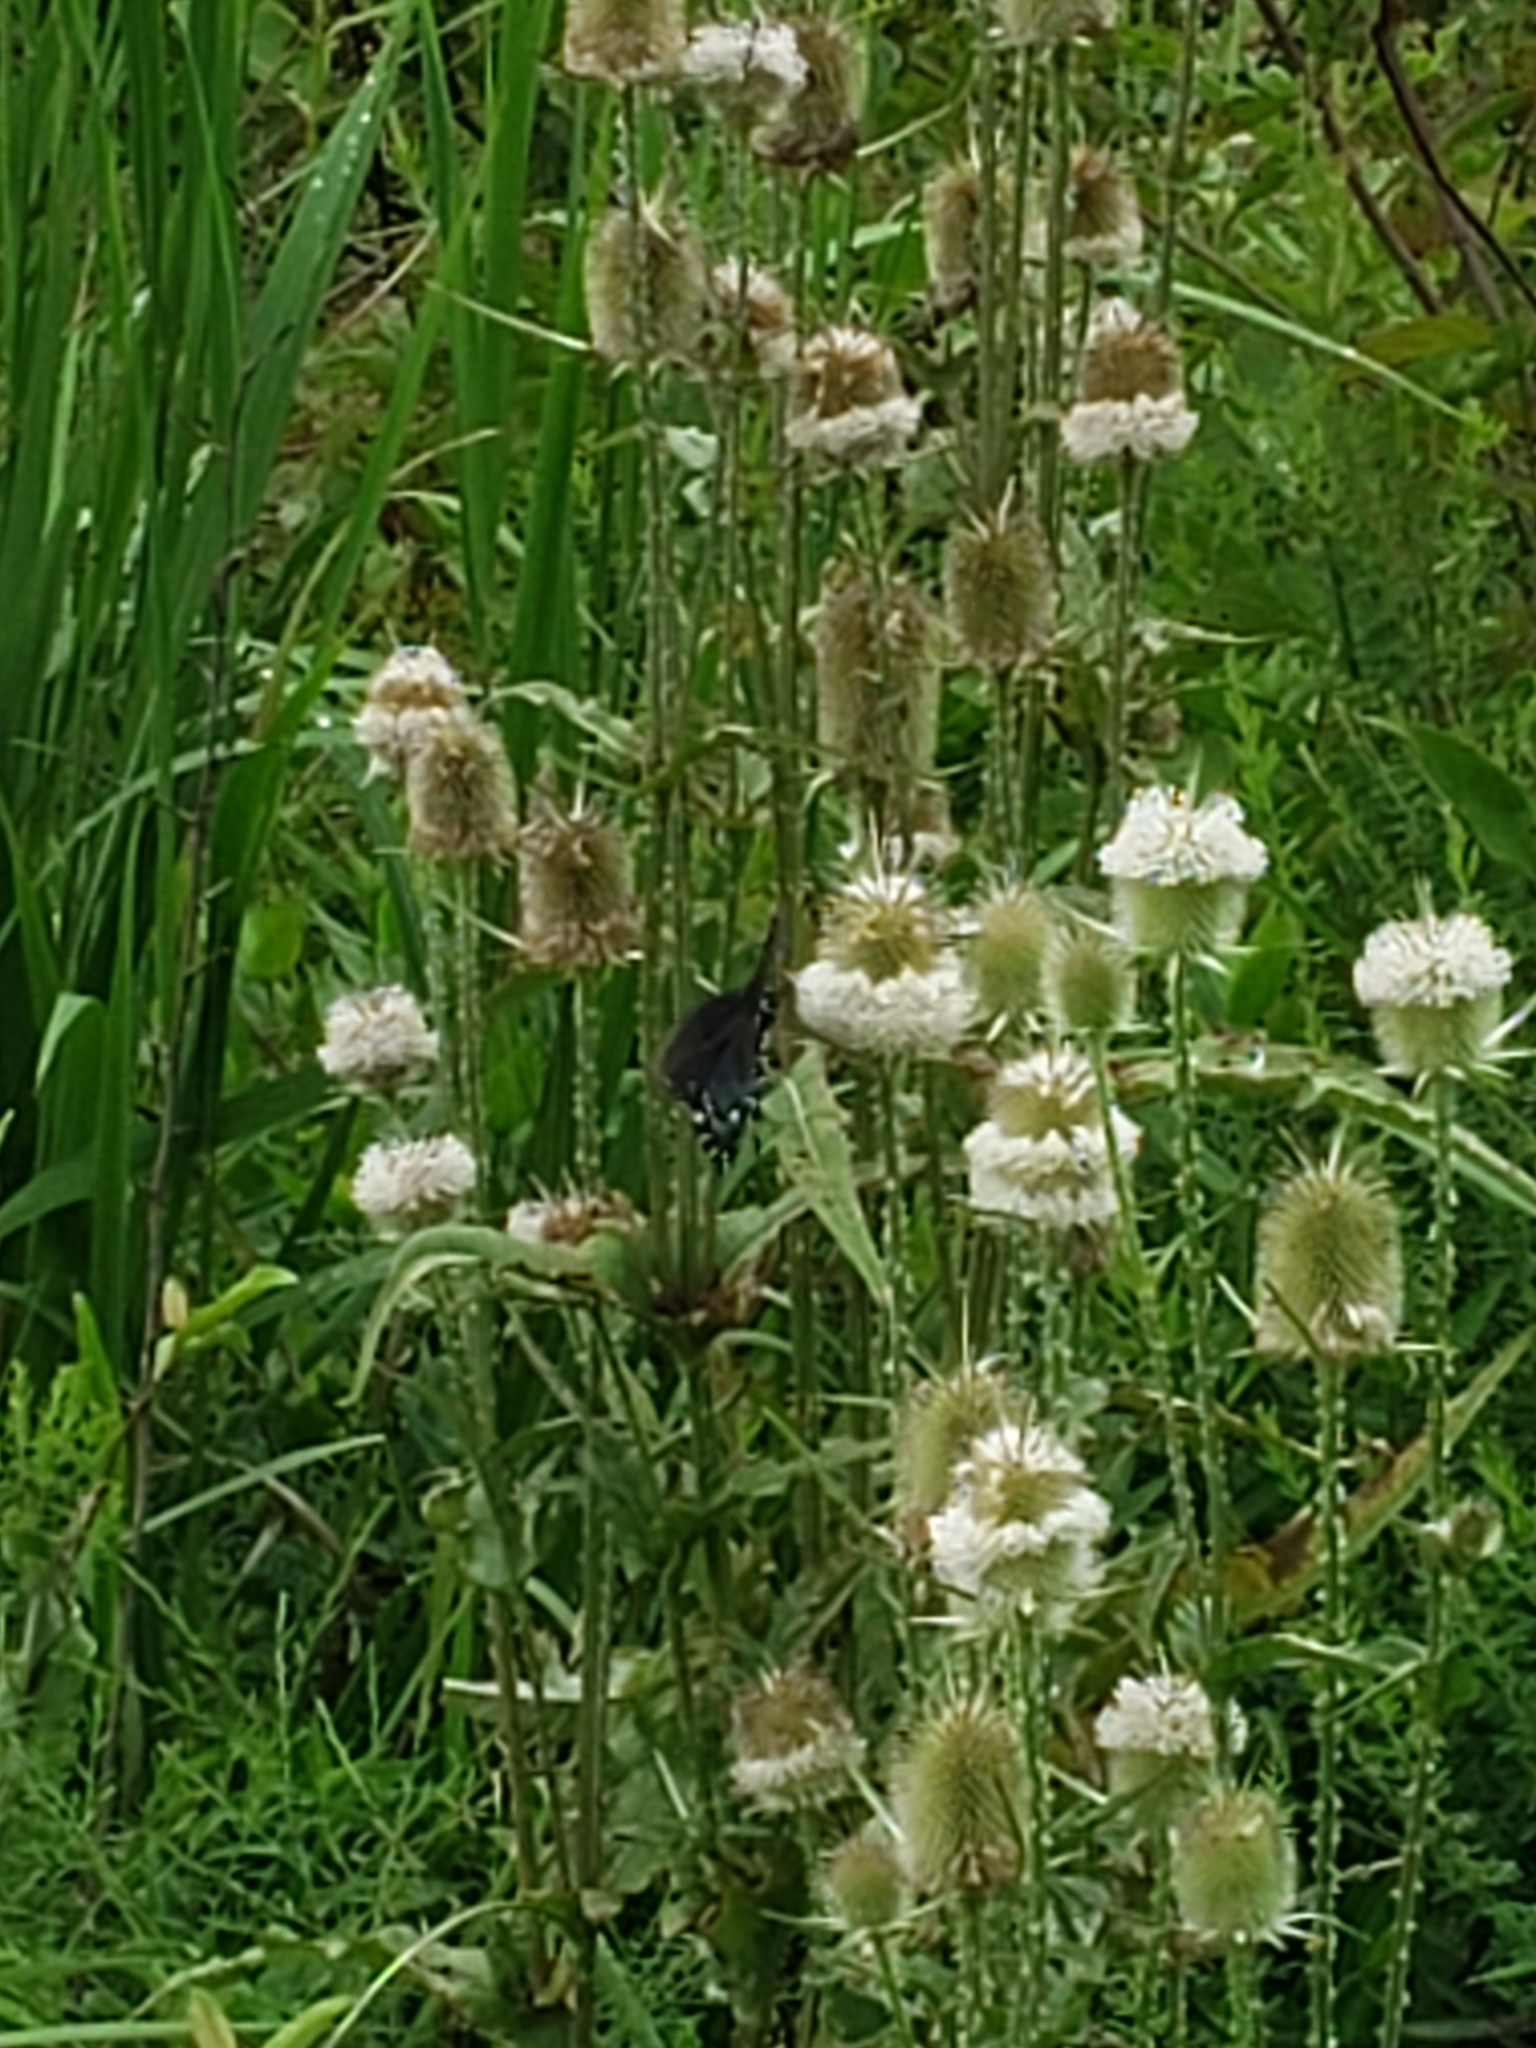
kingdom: Plantae
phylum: Tracheophyta
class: Magnoliopsida
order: Dipsacales
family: Caprifoliaceae
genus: Dipsacus
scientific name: Dipsacus laciniatus
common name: Cut-leaved teasel
